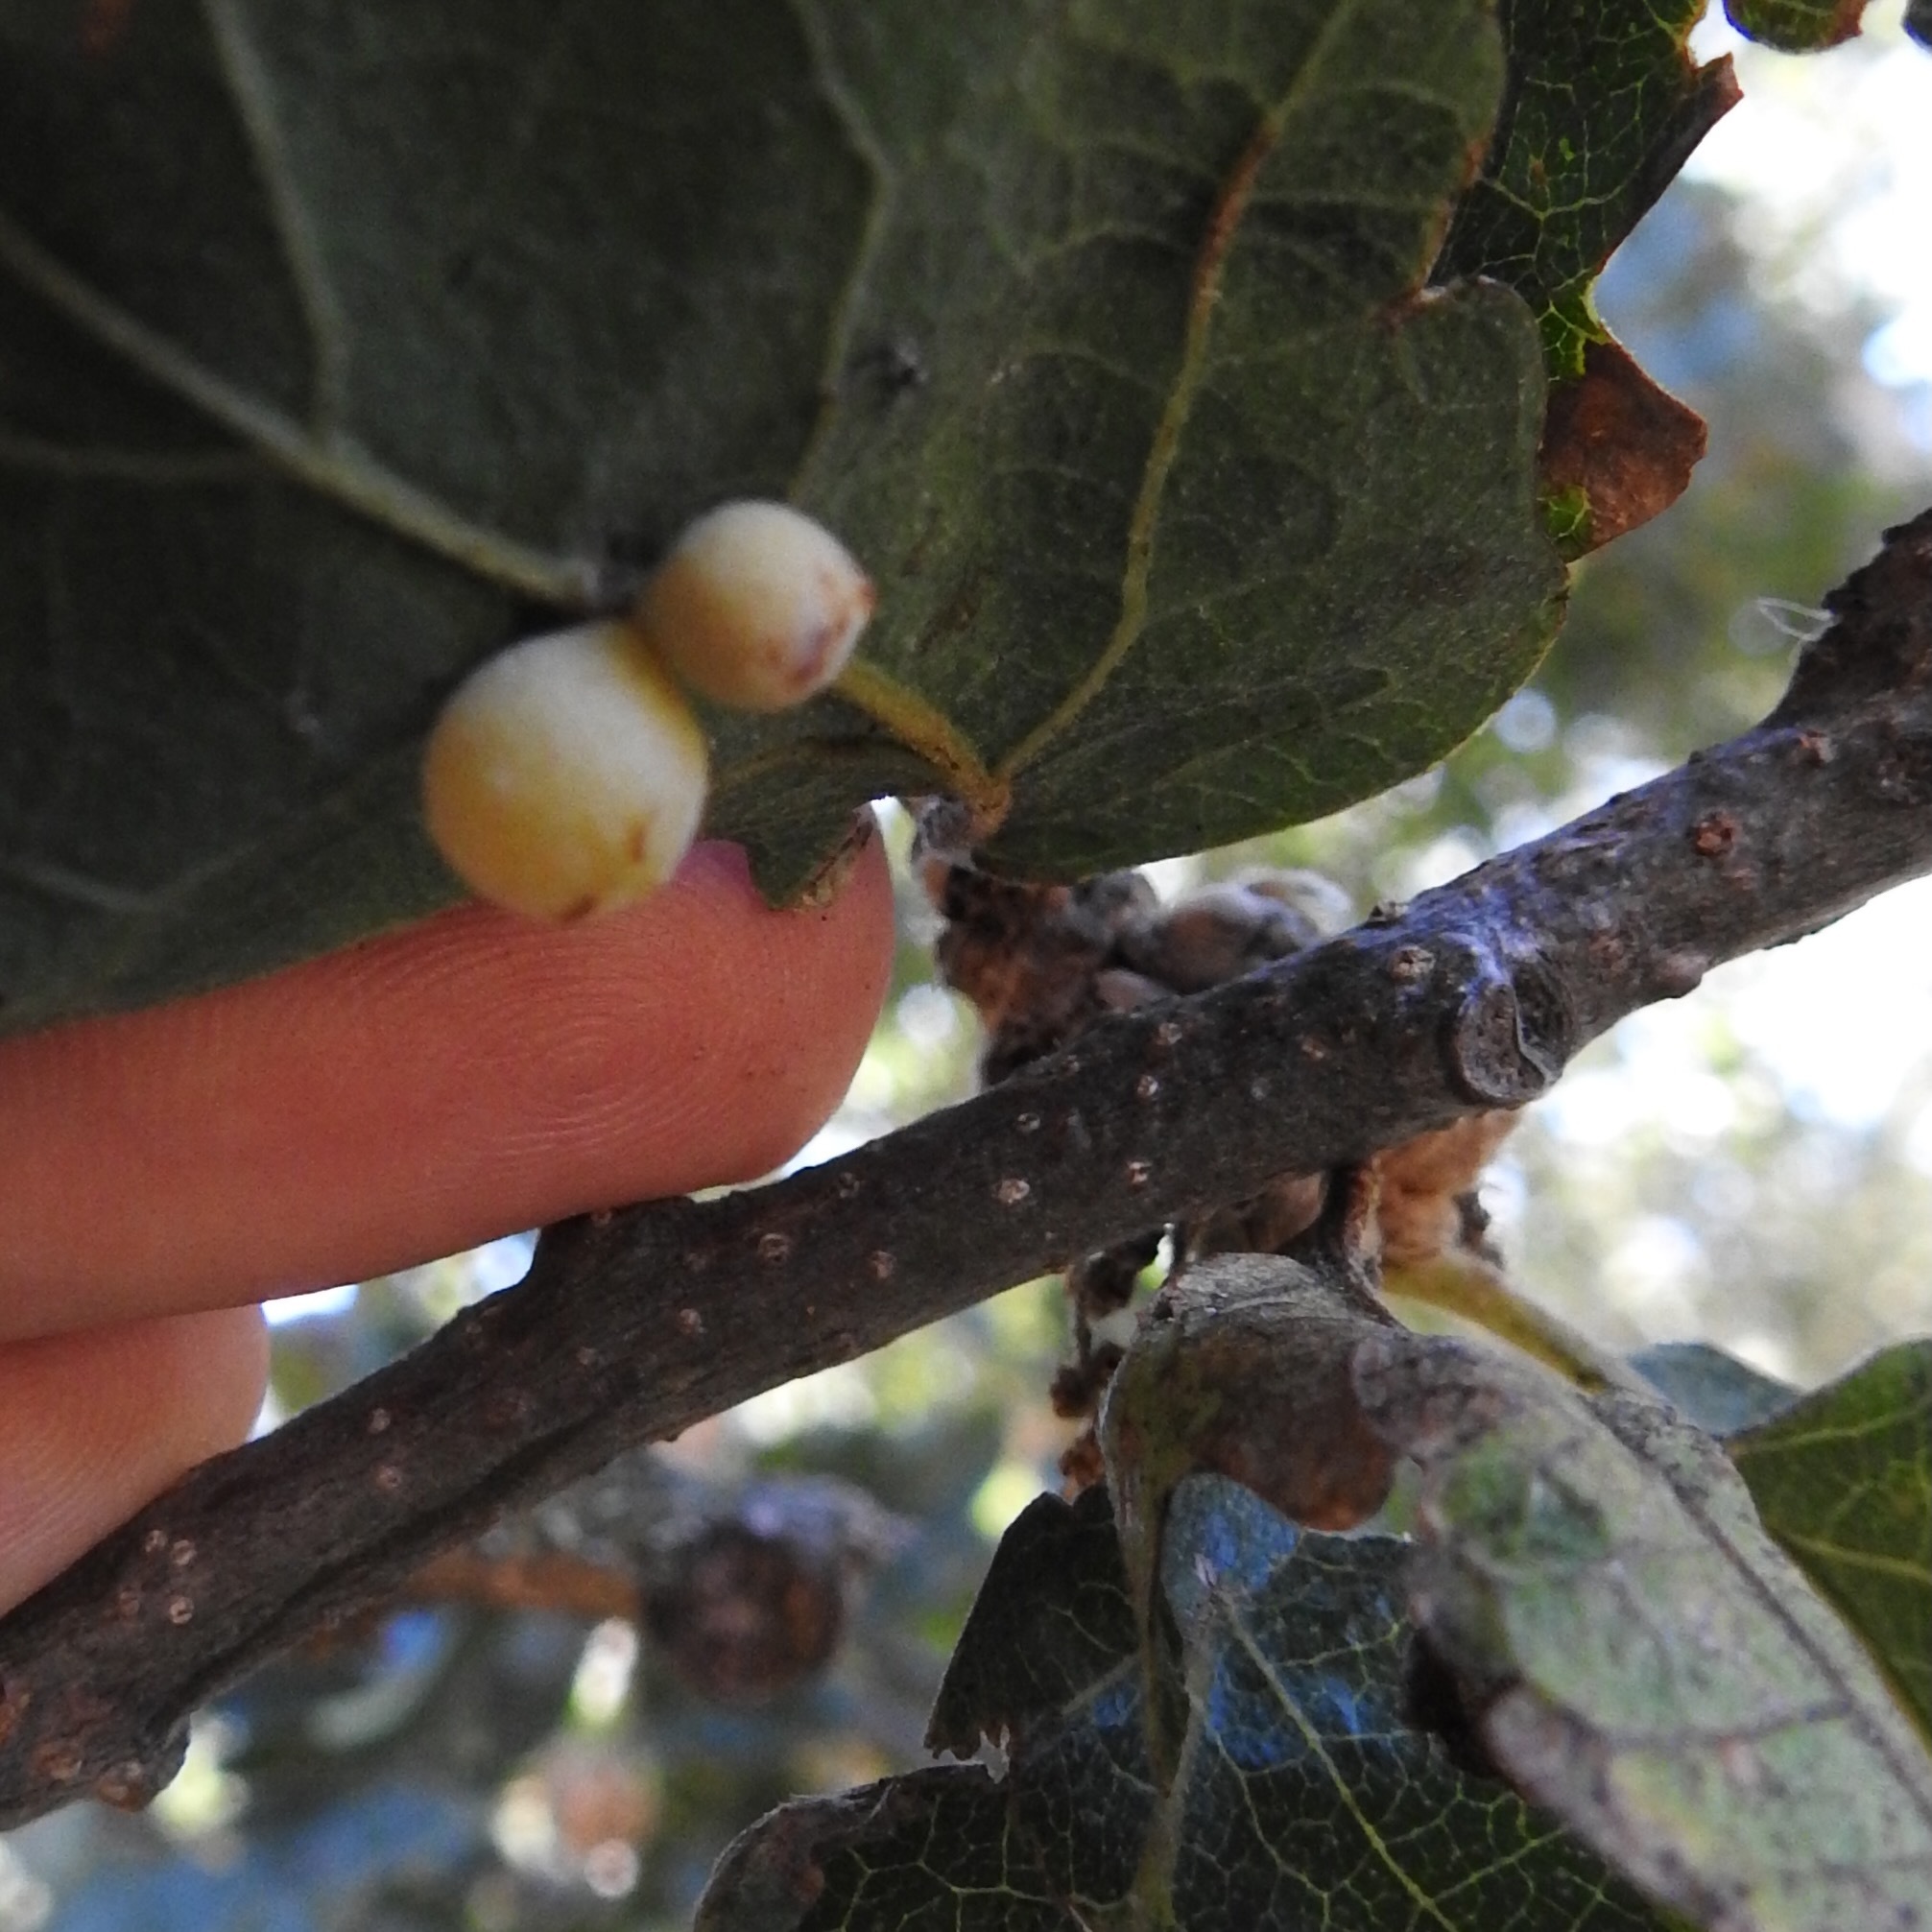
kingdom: Animalia
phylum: Arthropoda
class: Insecta
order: Hymenoptera
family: Cynipidae
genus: Andricus
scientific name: Andricus
